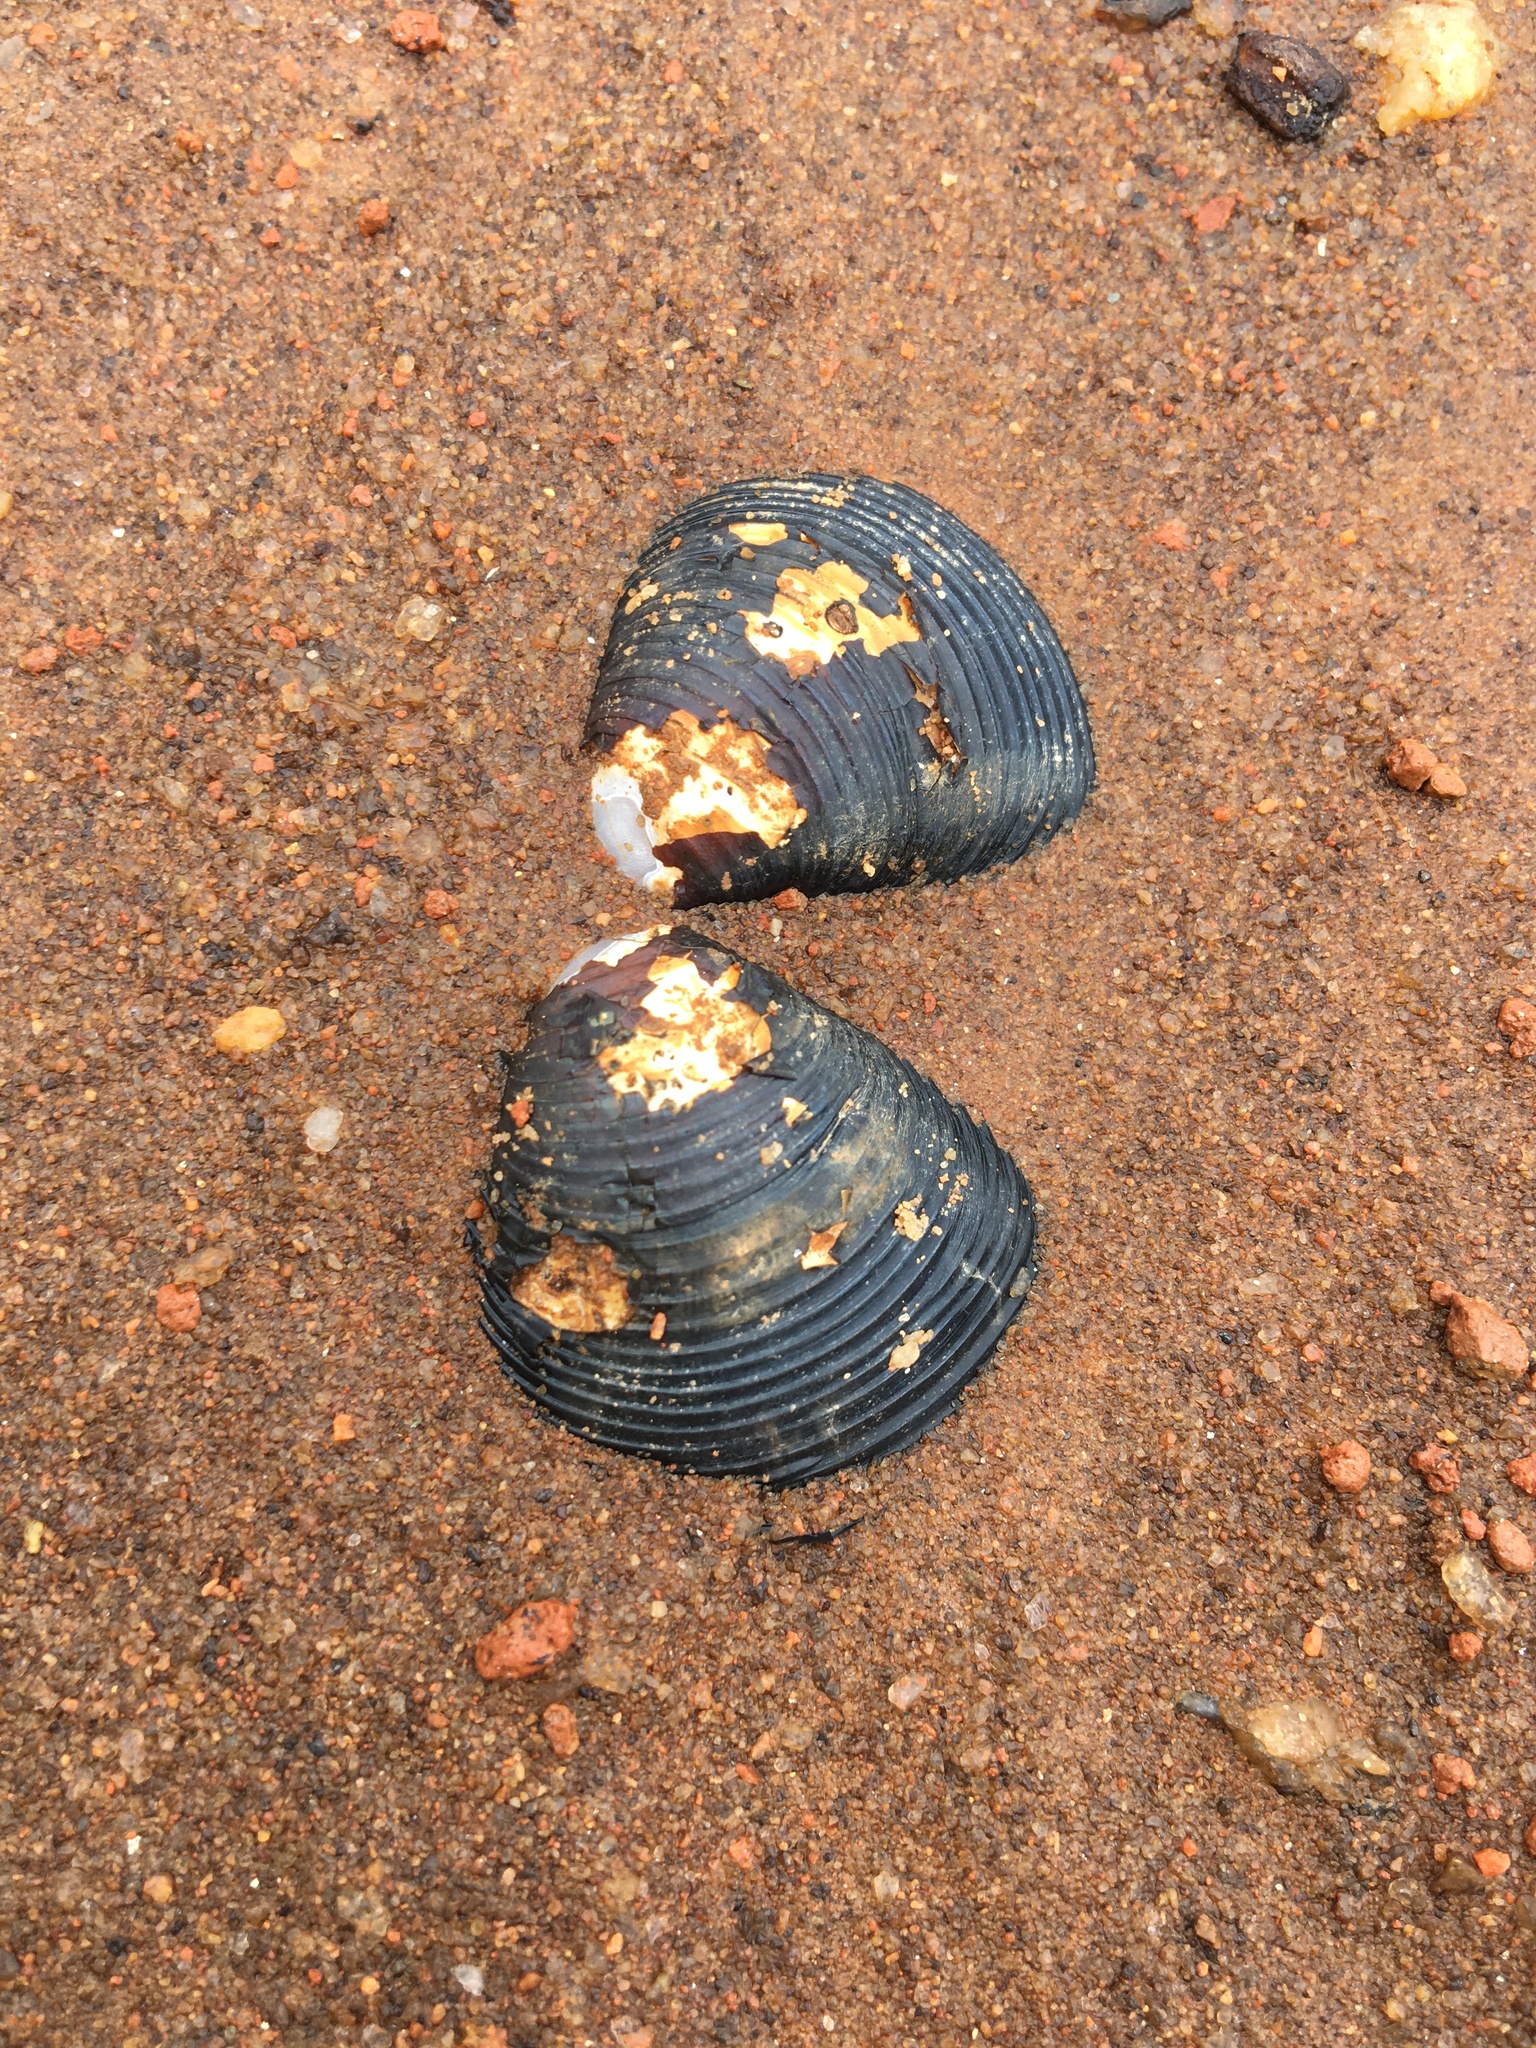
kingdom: Animalia
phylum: Mollusca
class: Bivalvia
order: Venerida
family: Cyrenidae
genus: Corbicula
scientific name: Corbicula fluminea
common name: Asian clam
